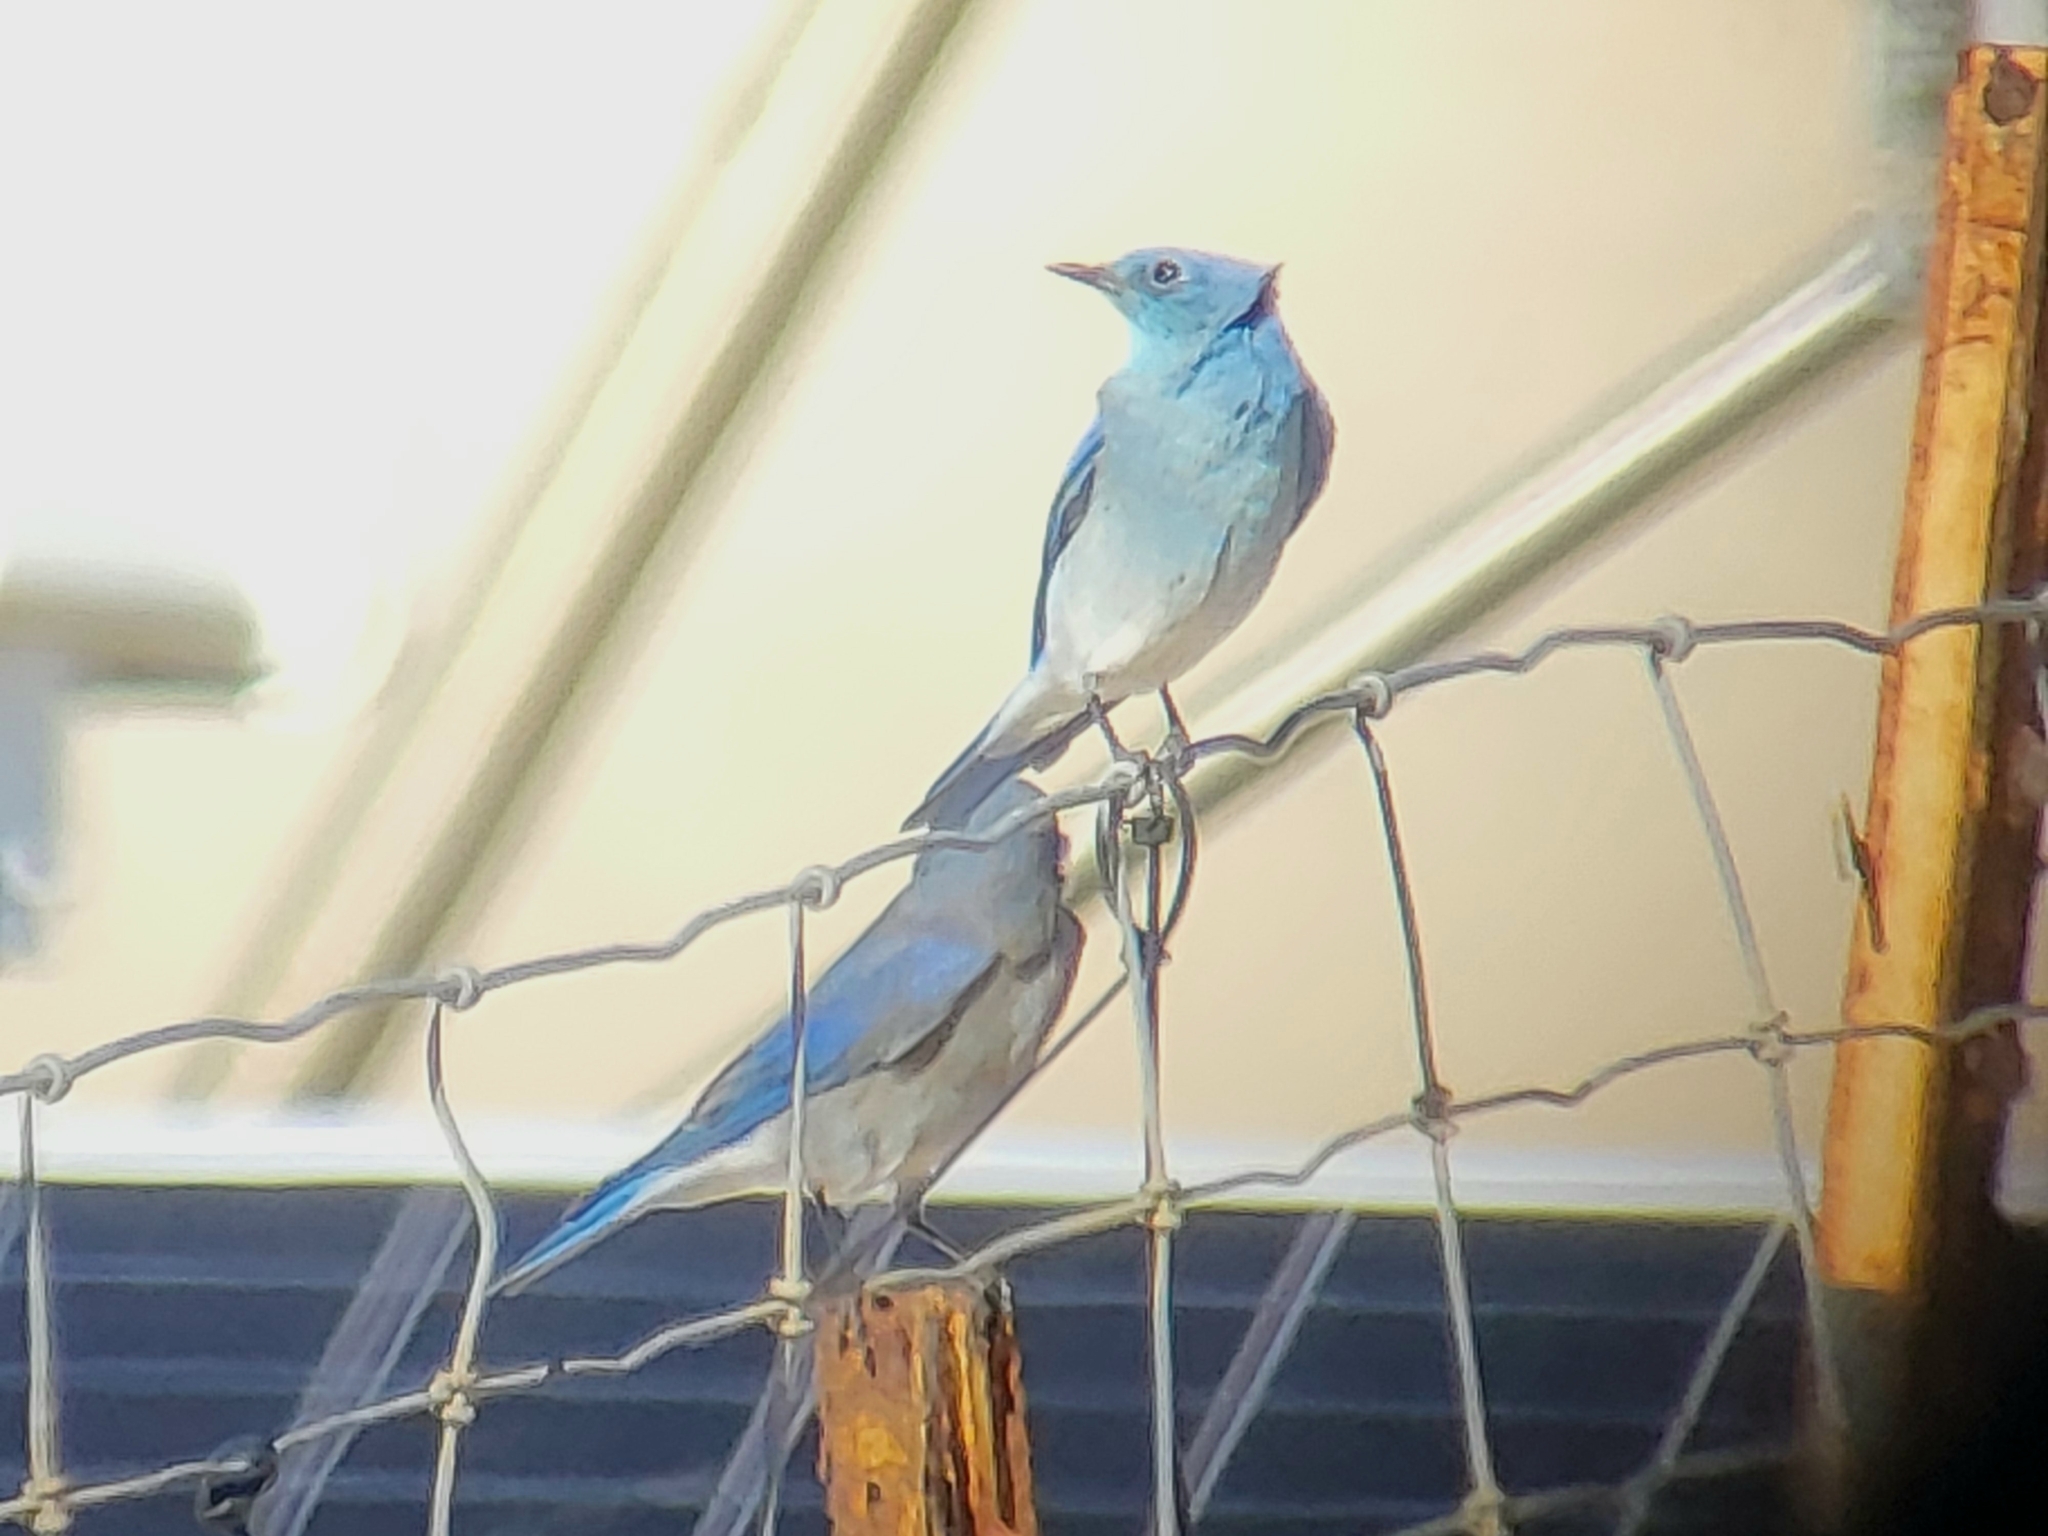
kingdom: Animalia
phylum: Chordata
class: Aves
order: Passeriformes
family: Turdidae
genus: Sialia
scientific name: Sialia currucoides
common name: Mountain bluebird
